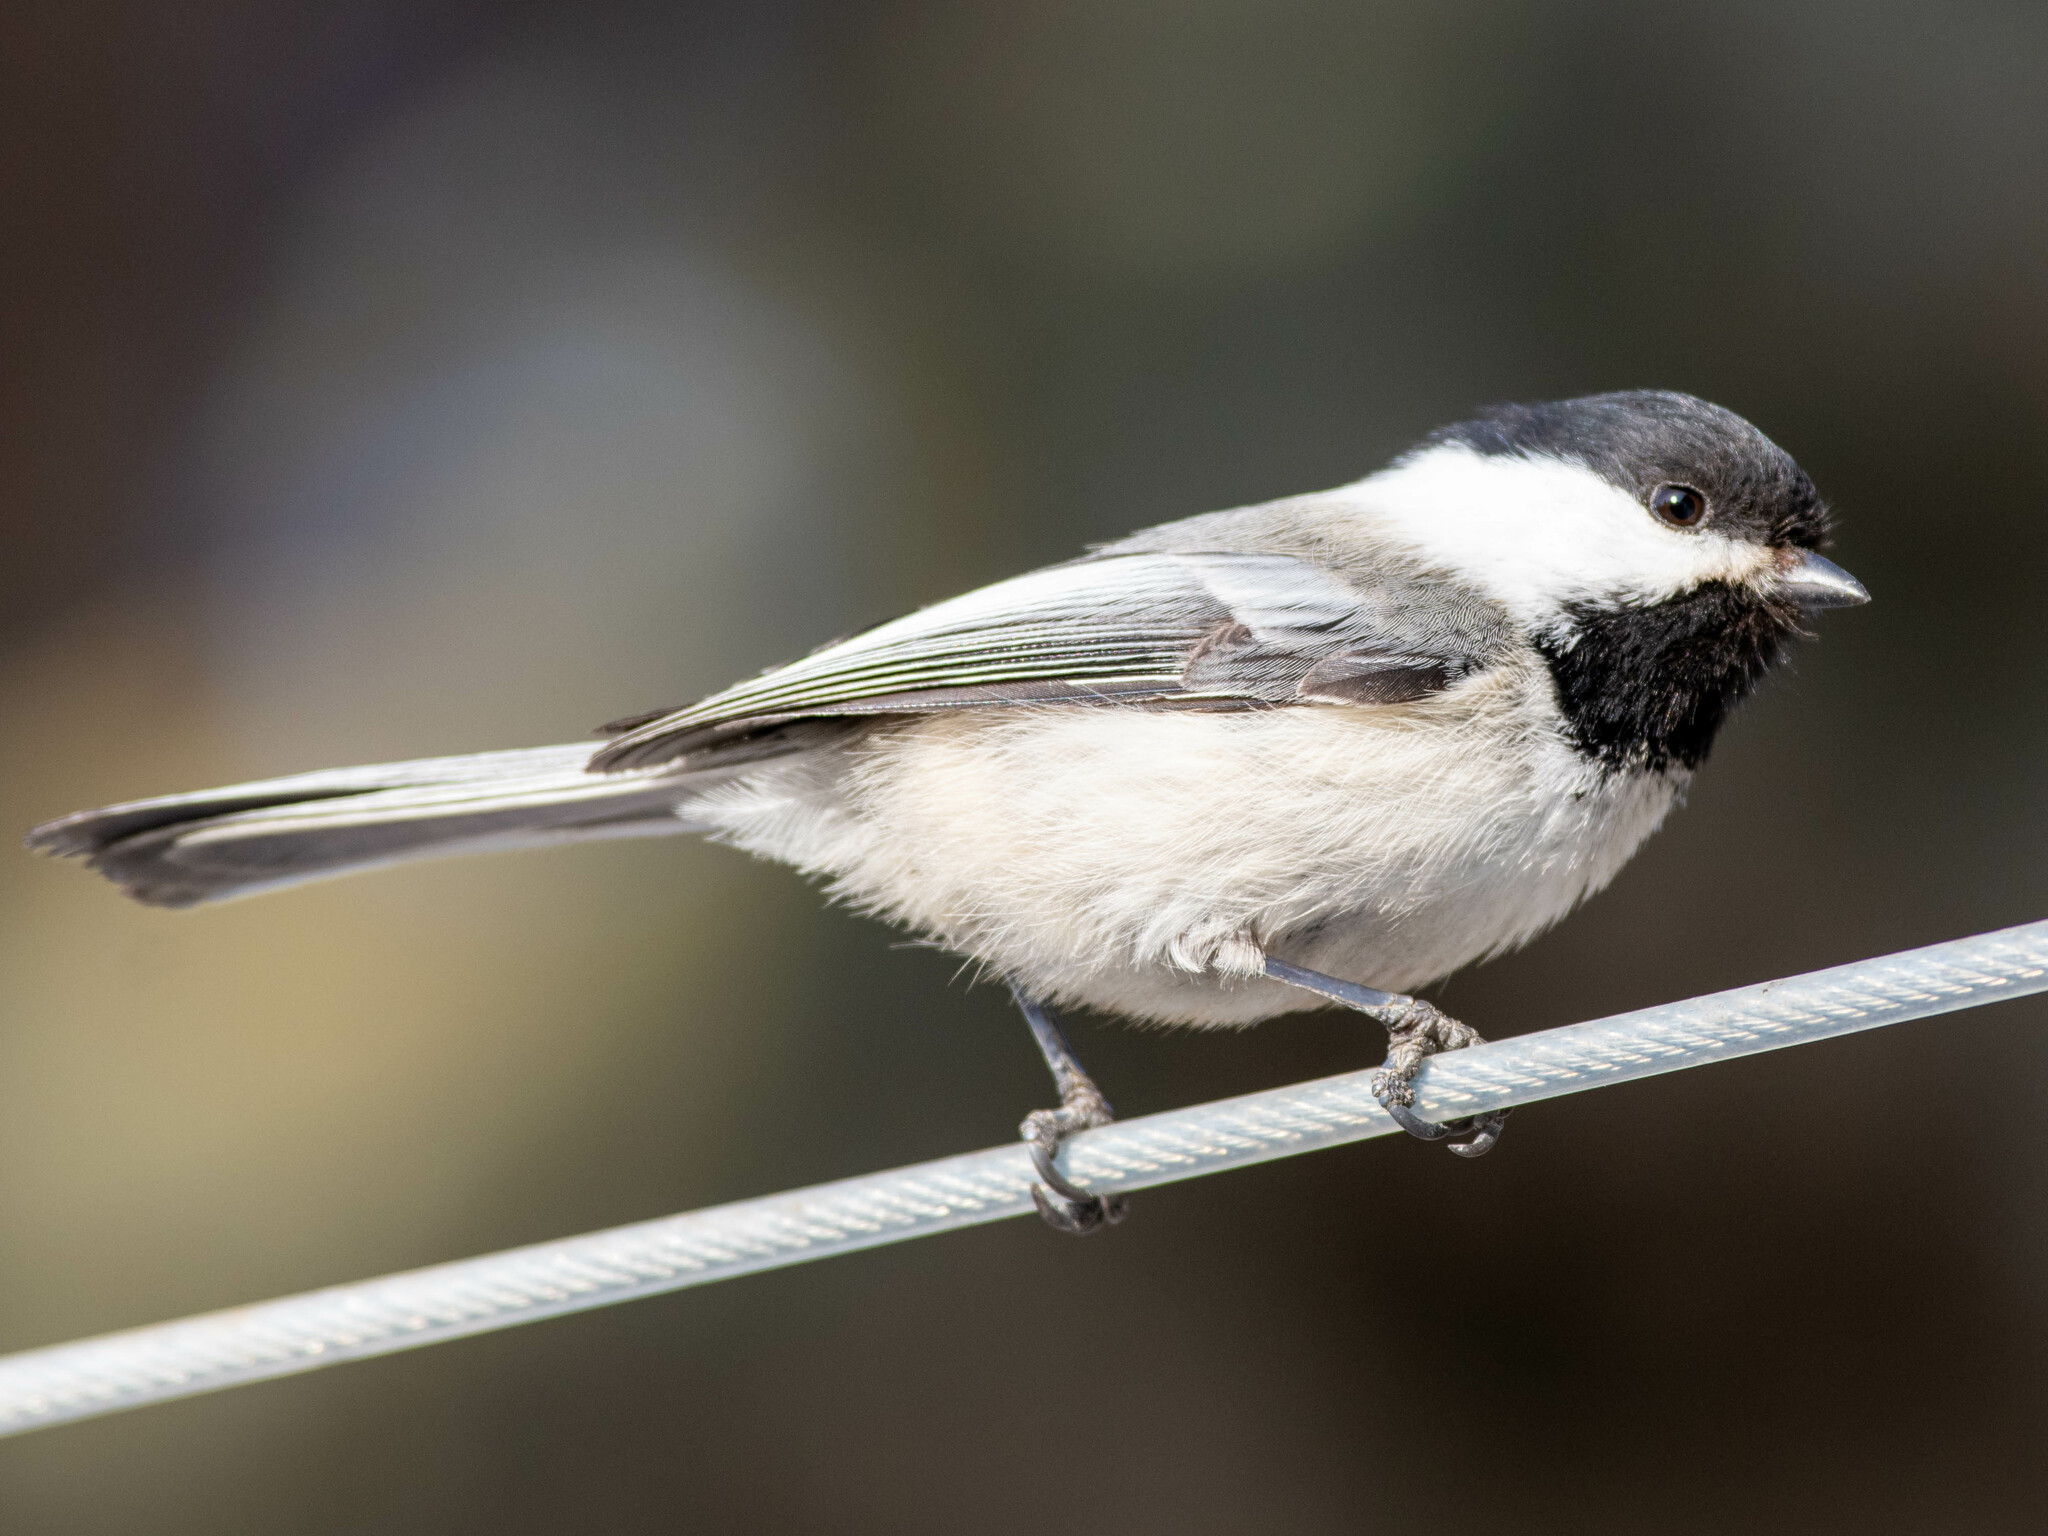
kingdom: Animalia
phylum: Chordata
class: Aves
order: Passeriformes
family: Paridae
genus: Poecile
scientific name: Poecile atricapillus
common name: Black-capped chickadee
